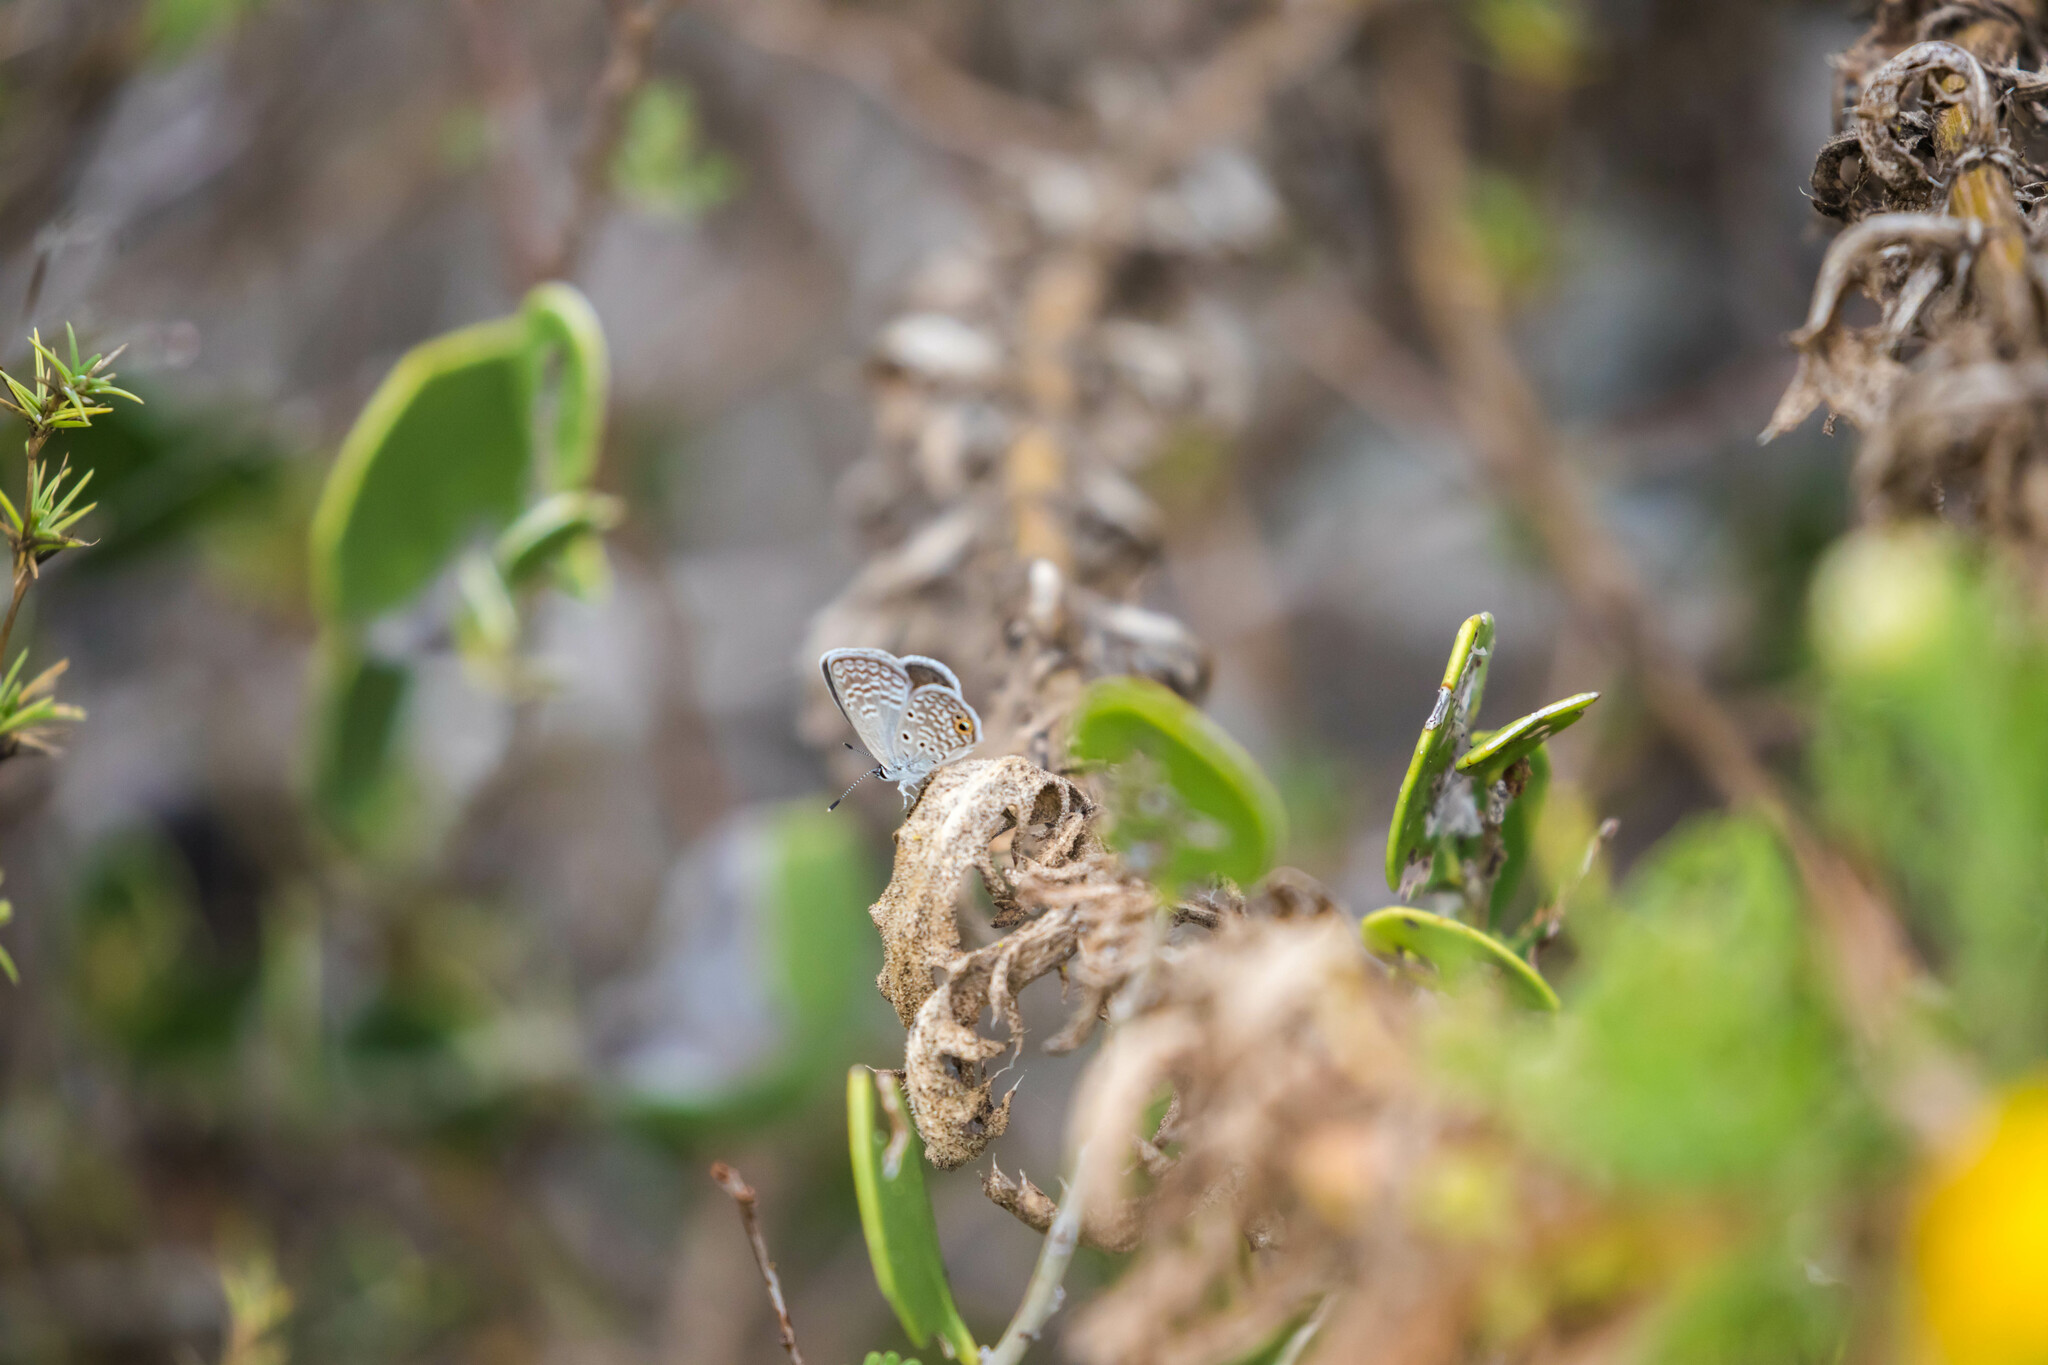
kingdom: Animalia
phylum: Arthropoda
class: Insecta
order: Lepidoptera
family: Lycaenidae
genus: Hemiargus
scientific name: Hemiargus ceraunus
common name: Ceraunus blue
